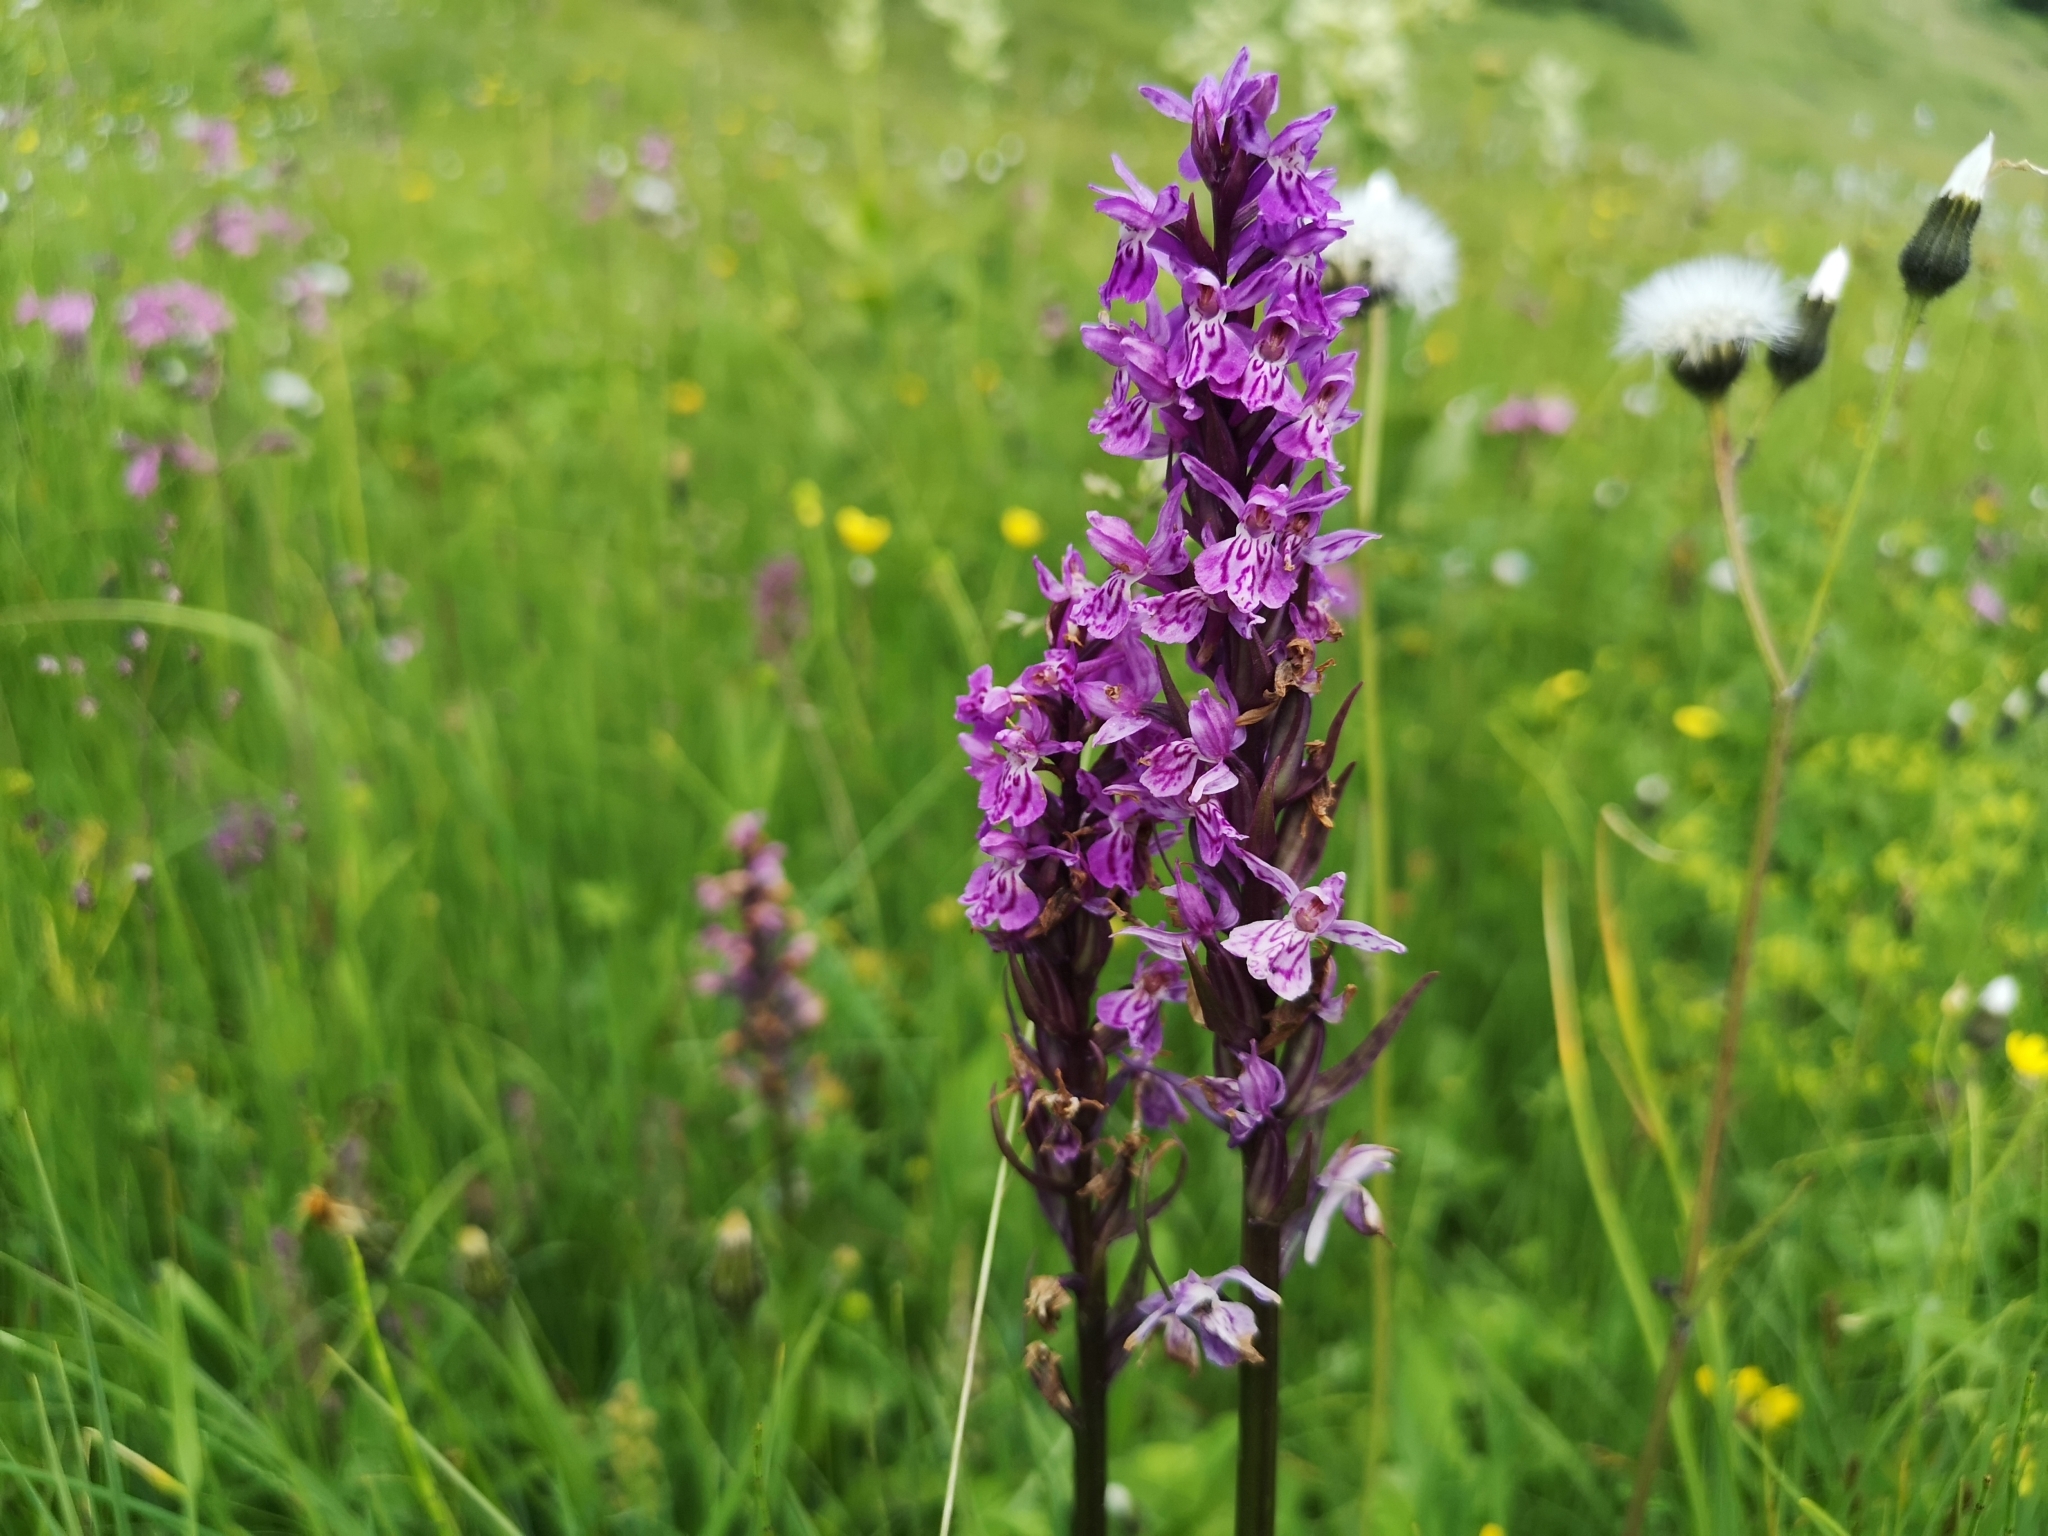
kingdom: Plantae
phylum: Tracheophyta
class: Liliopsida
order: Asparagales
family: Orchidaceae
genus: Dactylorhiza
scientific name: Dactylorhiza maculata
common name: Heath spotted-orchid
